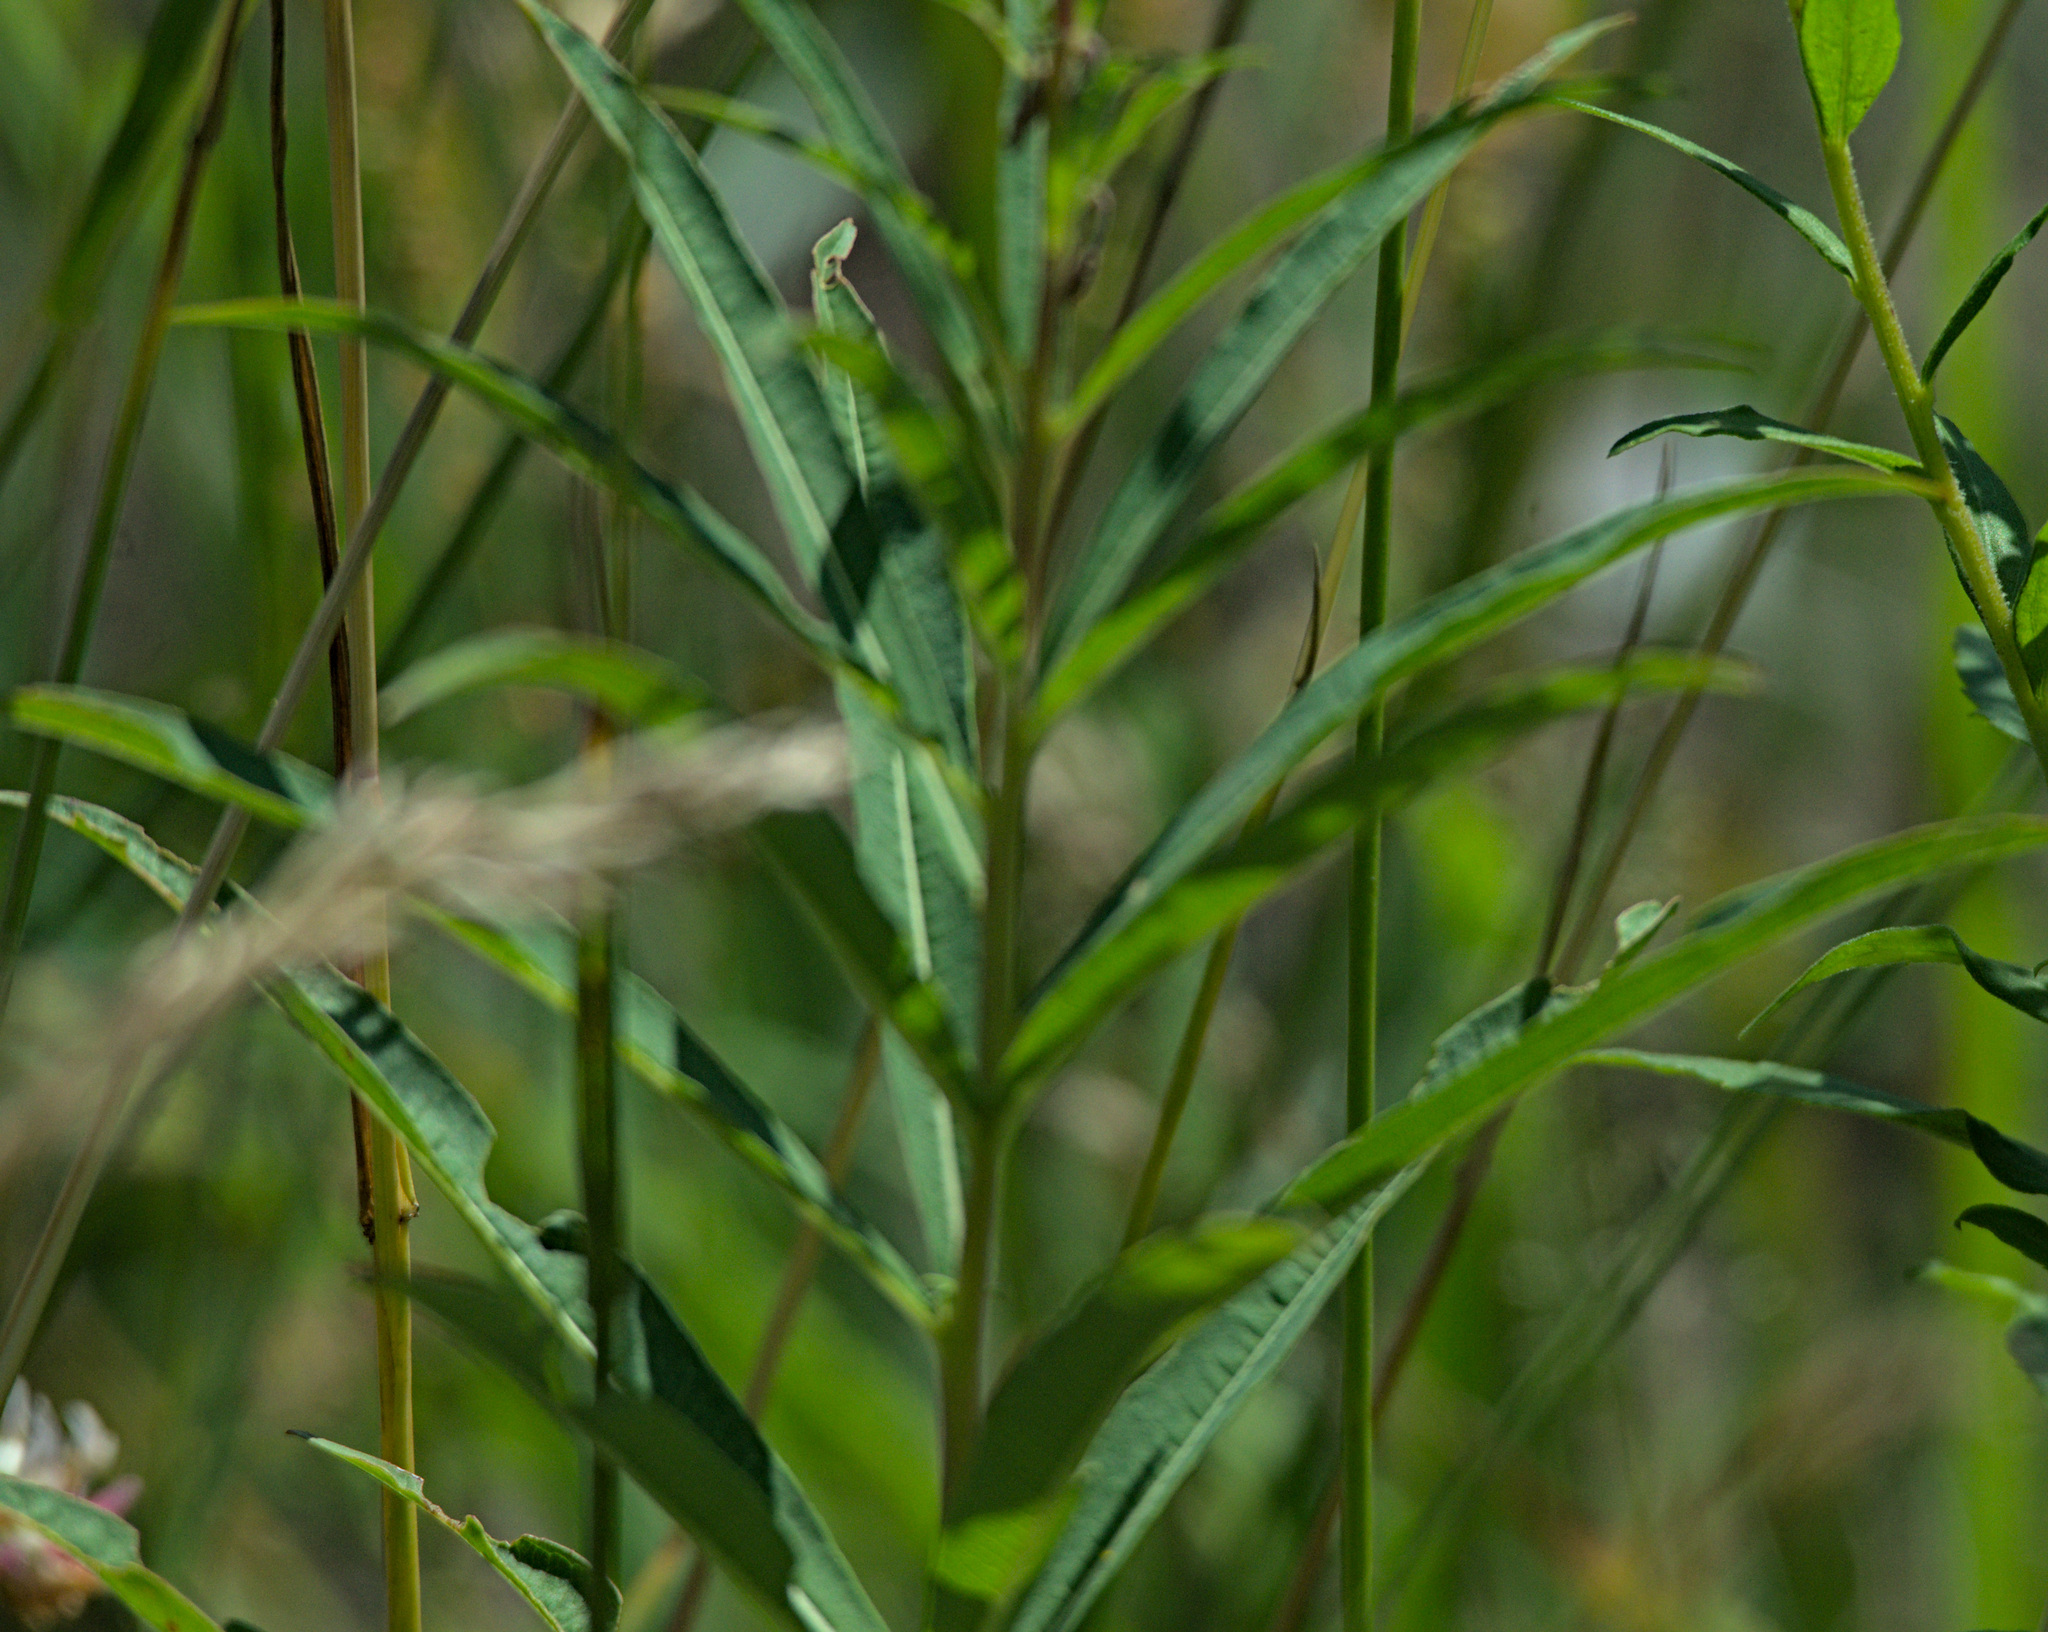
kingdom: Plantae
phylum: Tracheophyta
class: Magnoliopsida
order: Myrtales
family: Onagraceae
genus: Chamaenerion
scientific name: Chamaenerion angustifolium
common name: Fireweed
